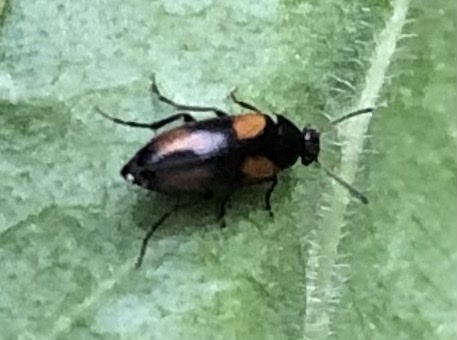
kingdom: Animalia
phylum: Arthropoda
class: Insecta
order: Coleoptera
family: Scraptiidae
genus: Anaspis
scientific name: Anaspis fasciata
